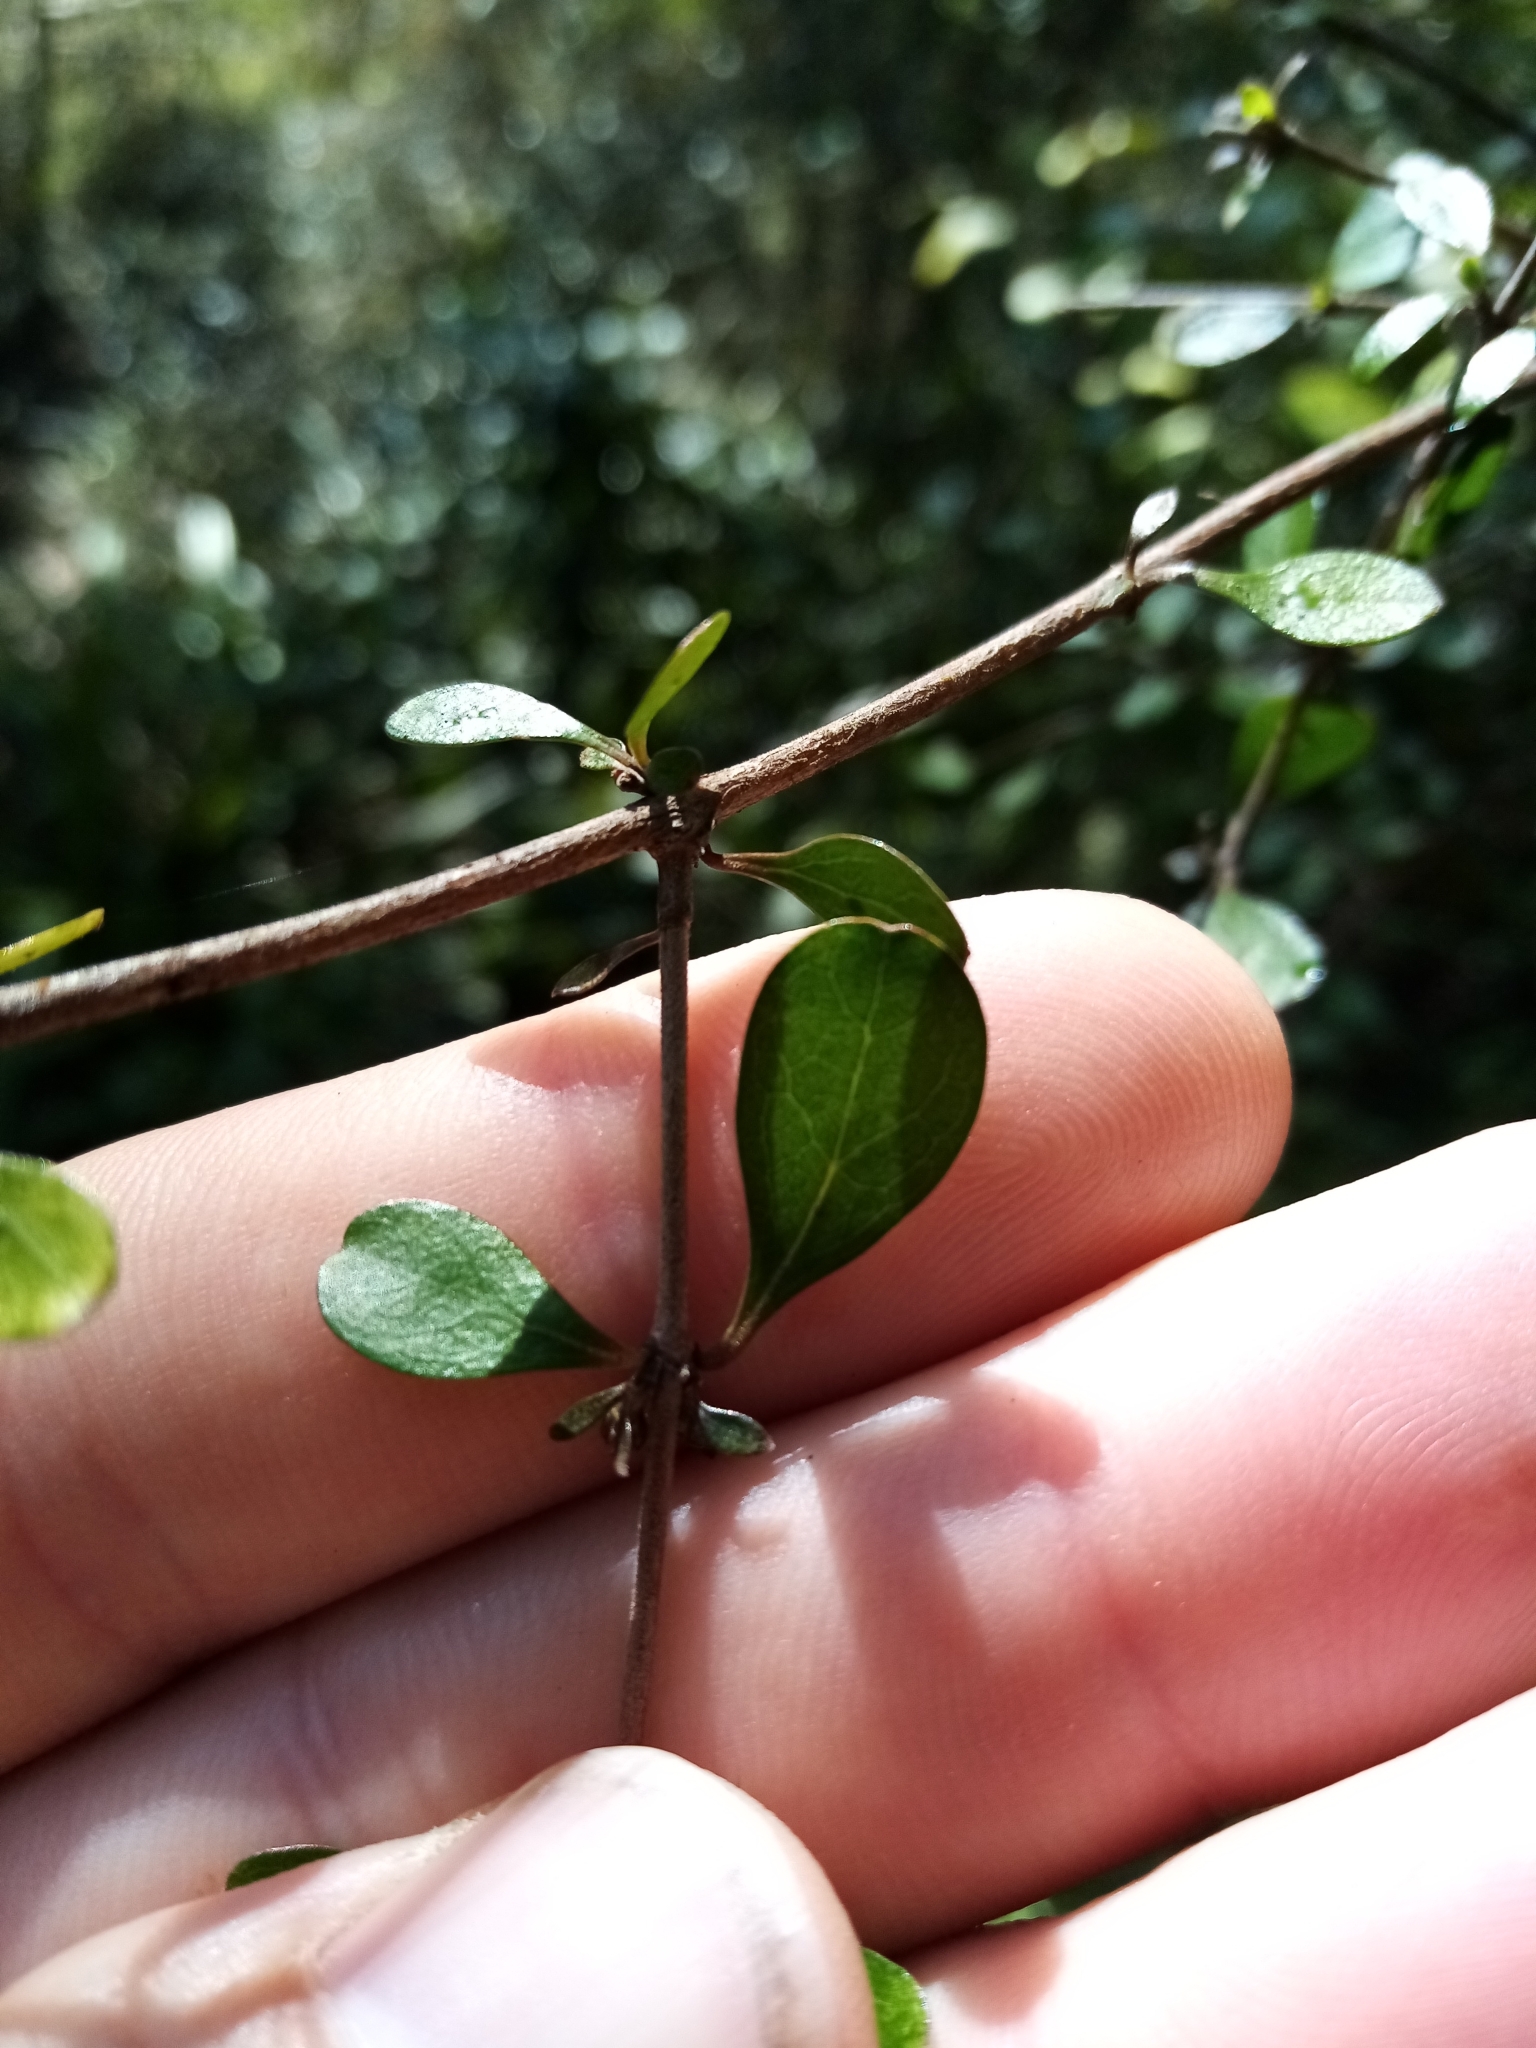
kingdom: Plantae
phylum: Tracheophyta
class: Magnoliopsida
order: Gentianales
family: Rubiaceae
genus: Coprosma
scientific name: Coprosma rigida
